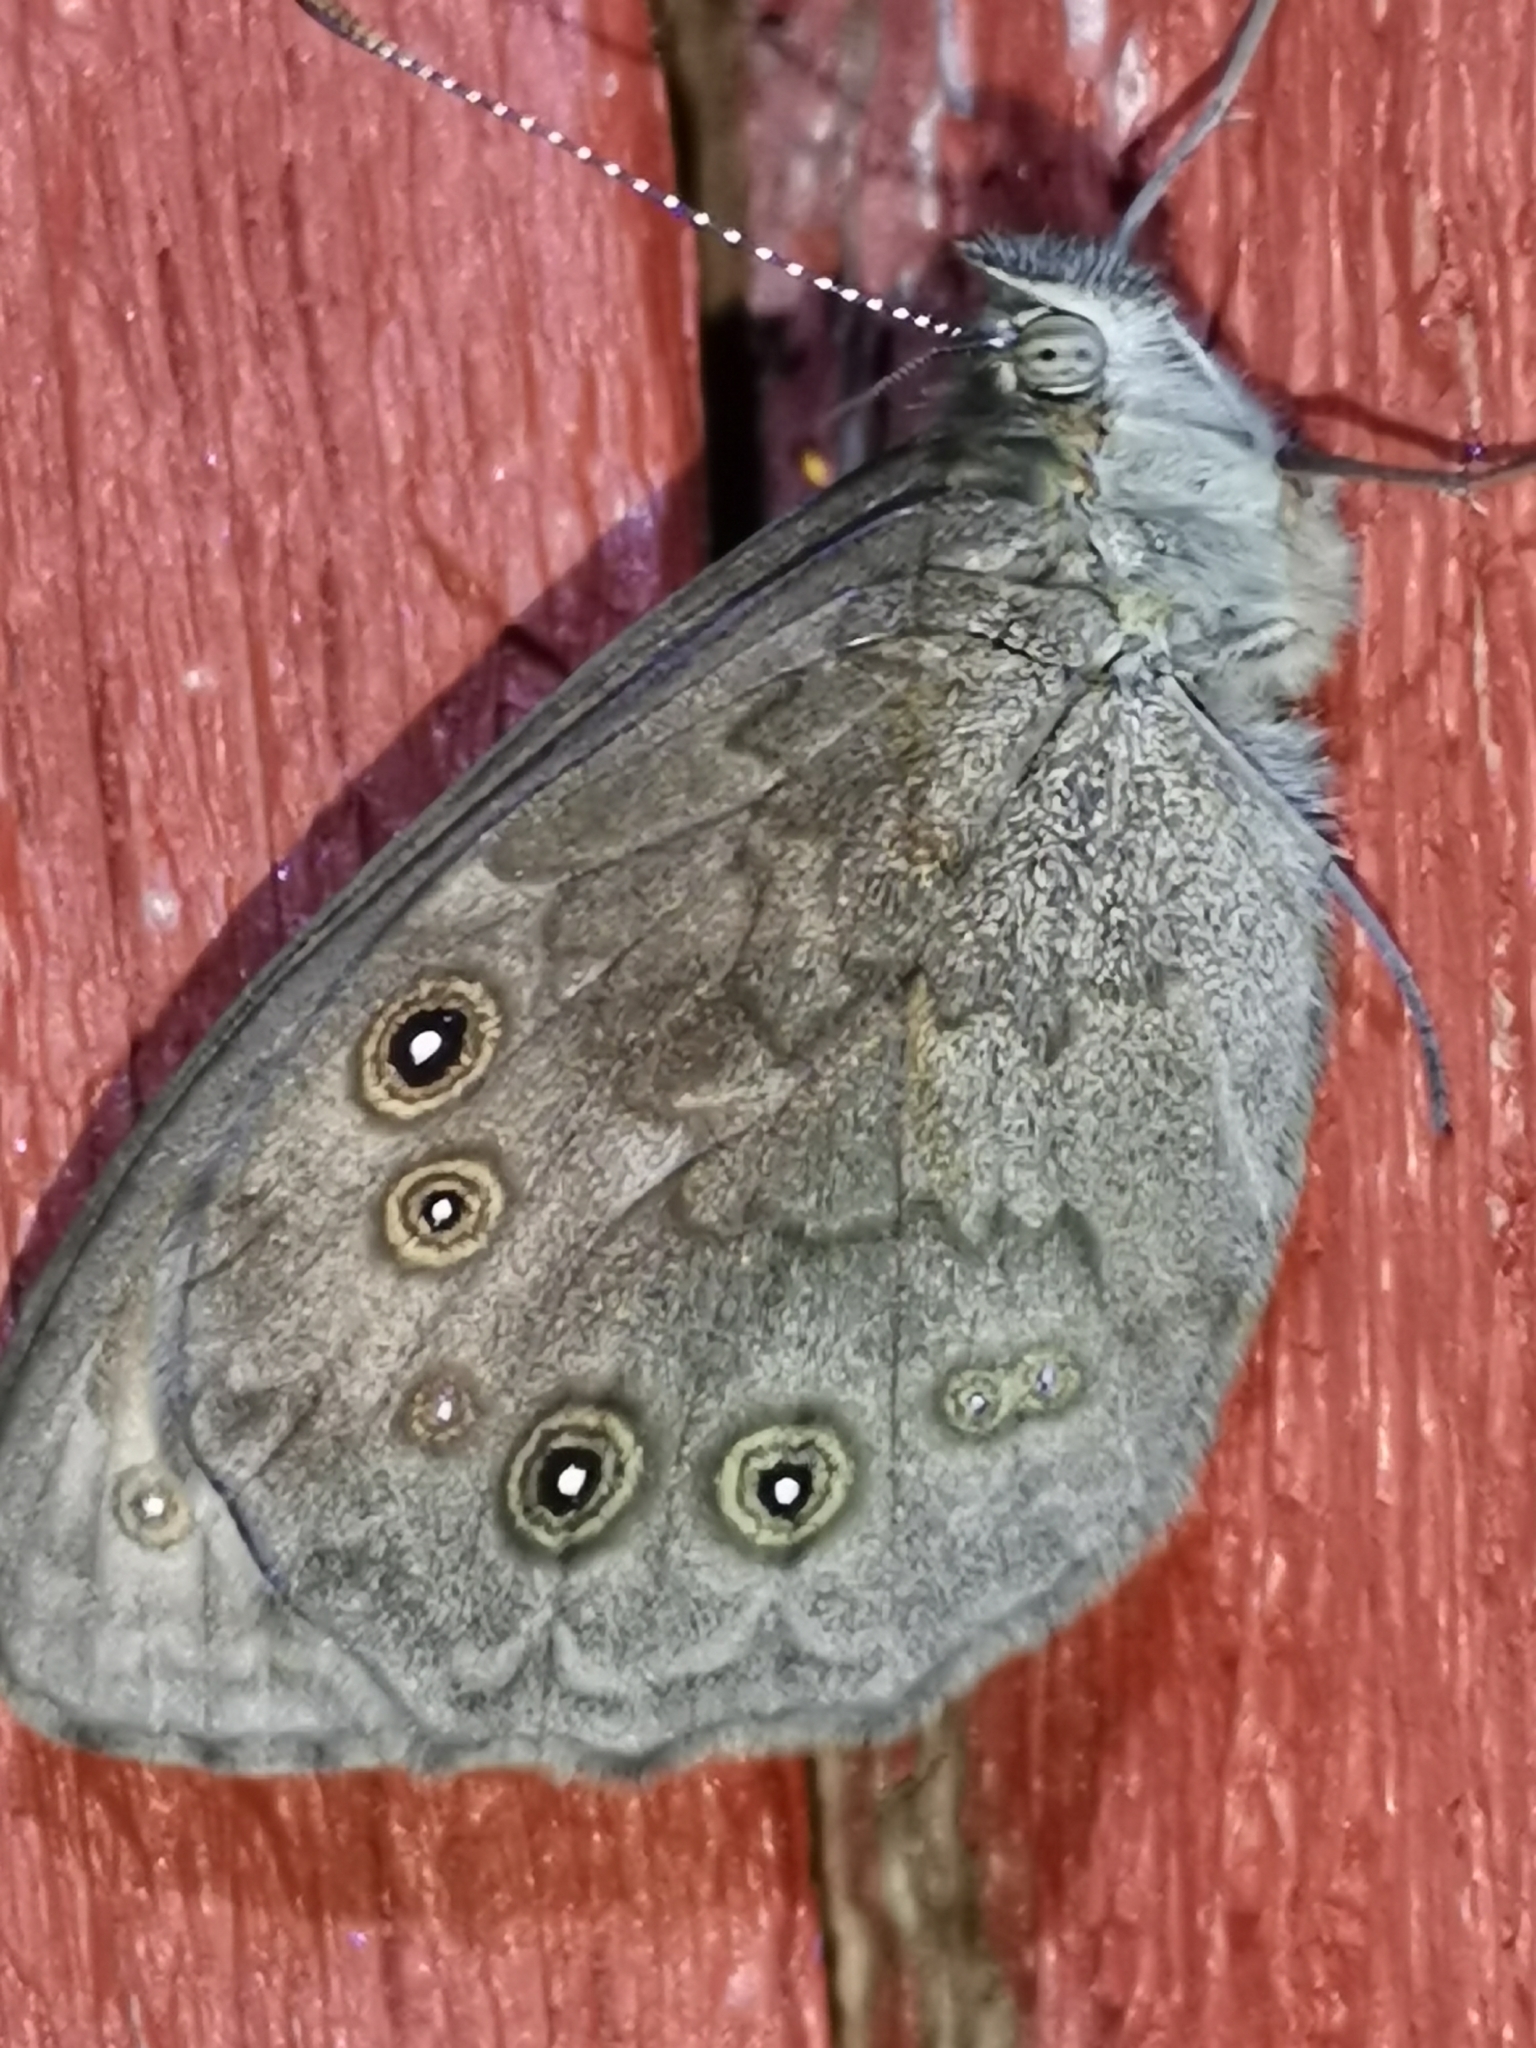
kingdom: Animalia
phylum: Arthropoda
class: Insecta
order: Lepidoptera
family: Nymphalidae
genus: Pararge
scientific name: Pararge Lasiommata maera
